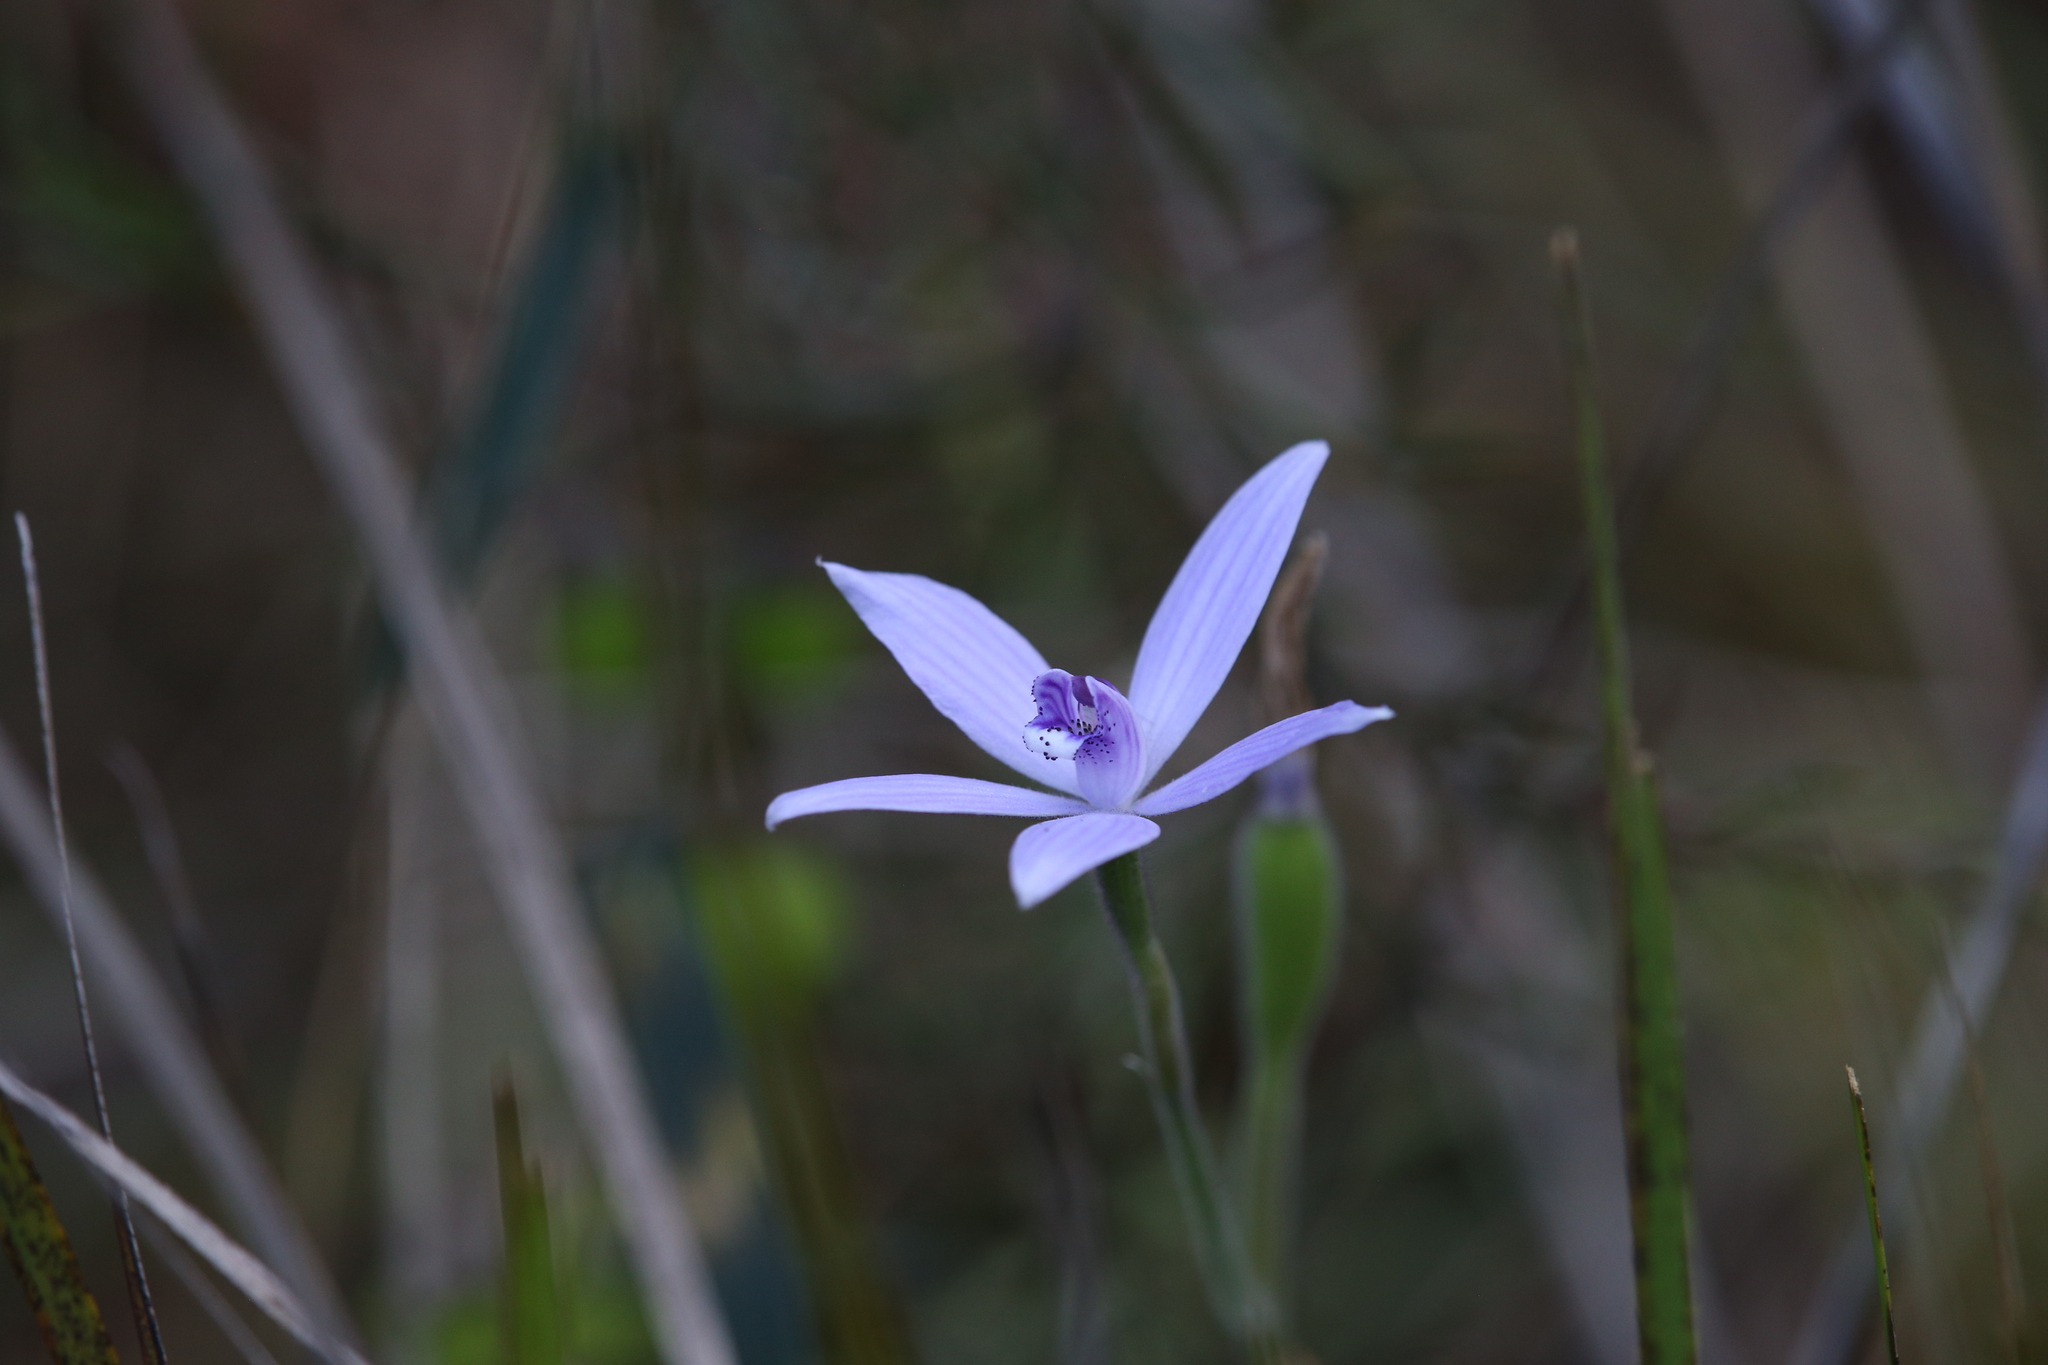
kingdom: Plantae
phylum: Tracheophyta
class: Liliopsida
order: Asparagales
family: Orchidaceae
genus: Caladenia
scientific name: Caladenia sericea
